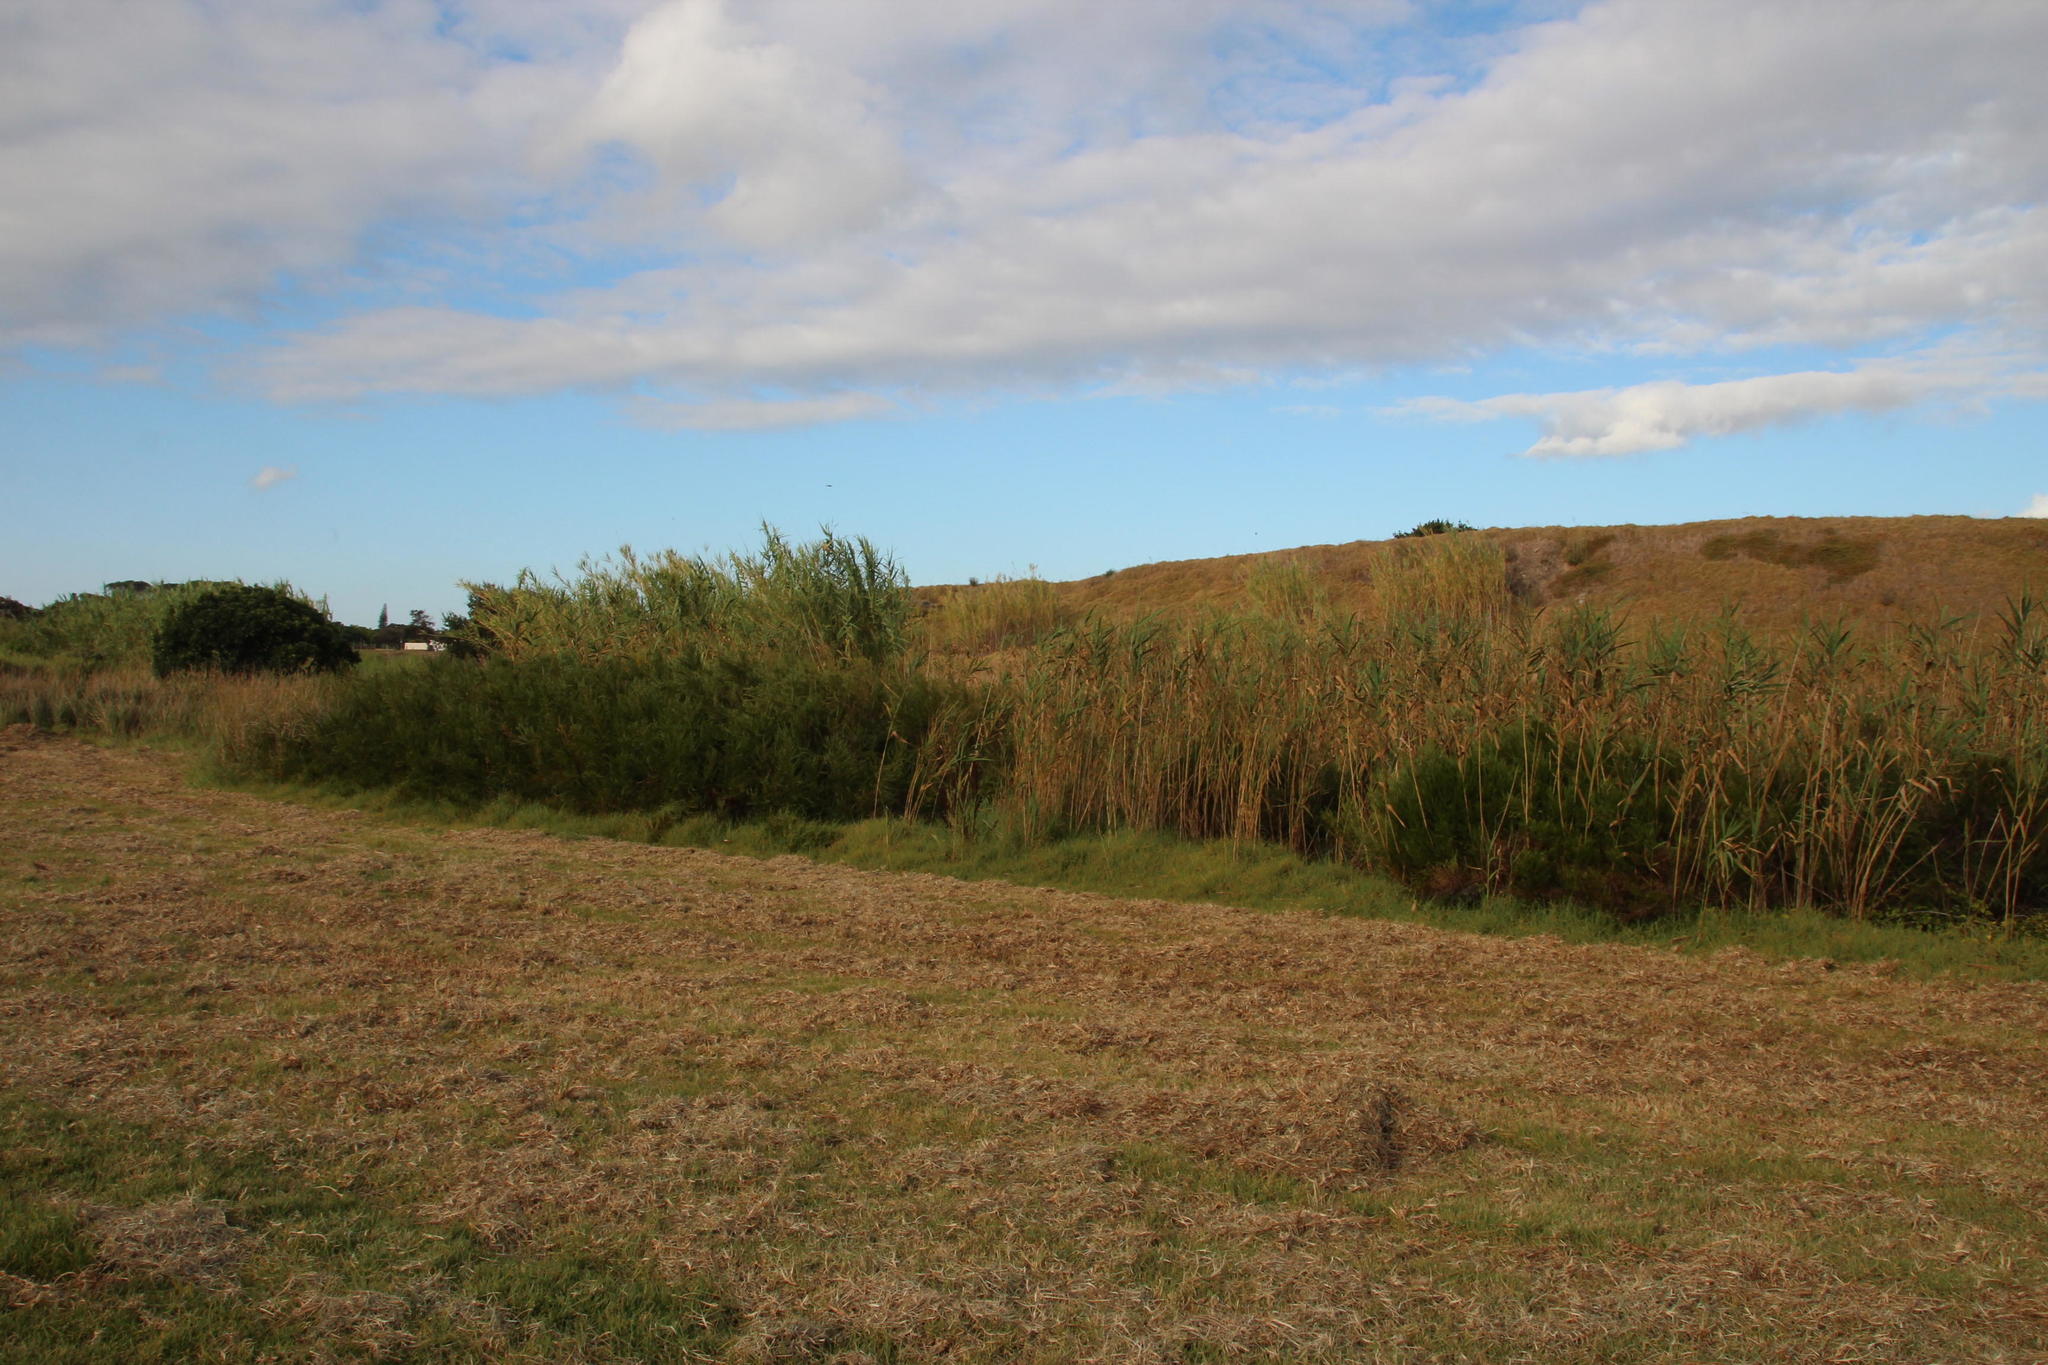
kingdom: Plantae
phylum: Tracheophyta
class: Liliopsida
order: Poales
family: Poaceae
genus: Phragmites
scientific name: Phragmites australis
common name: Common reed
